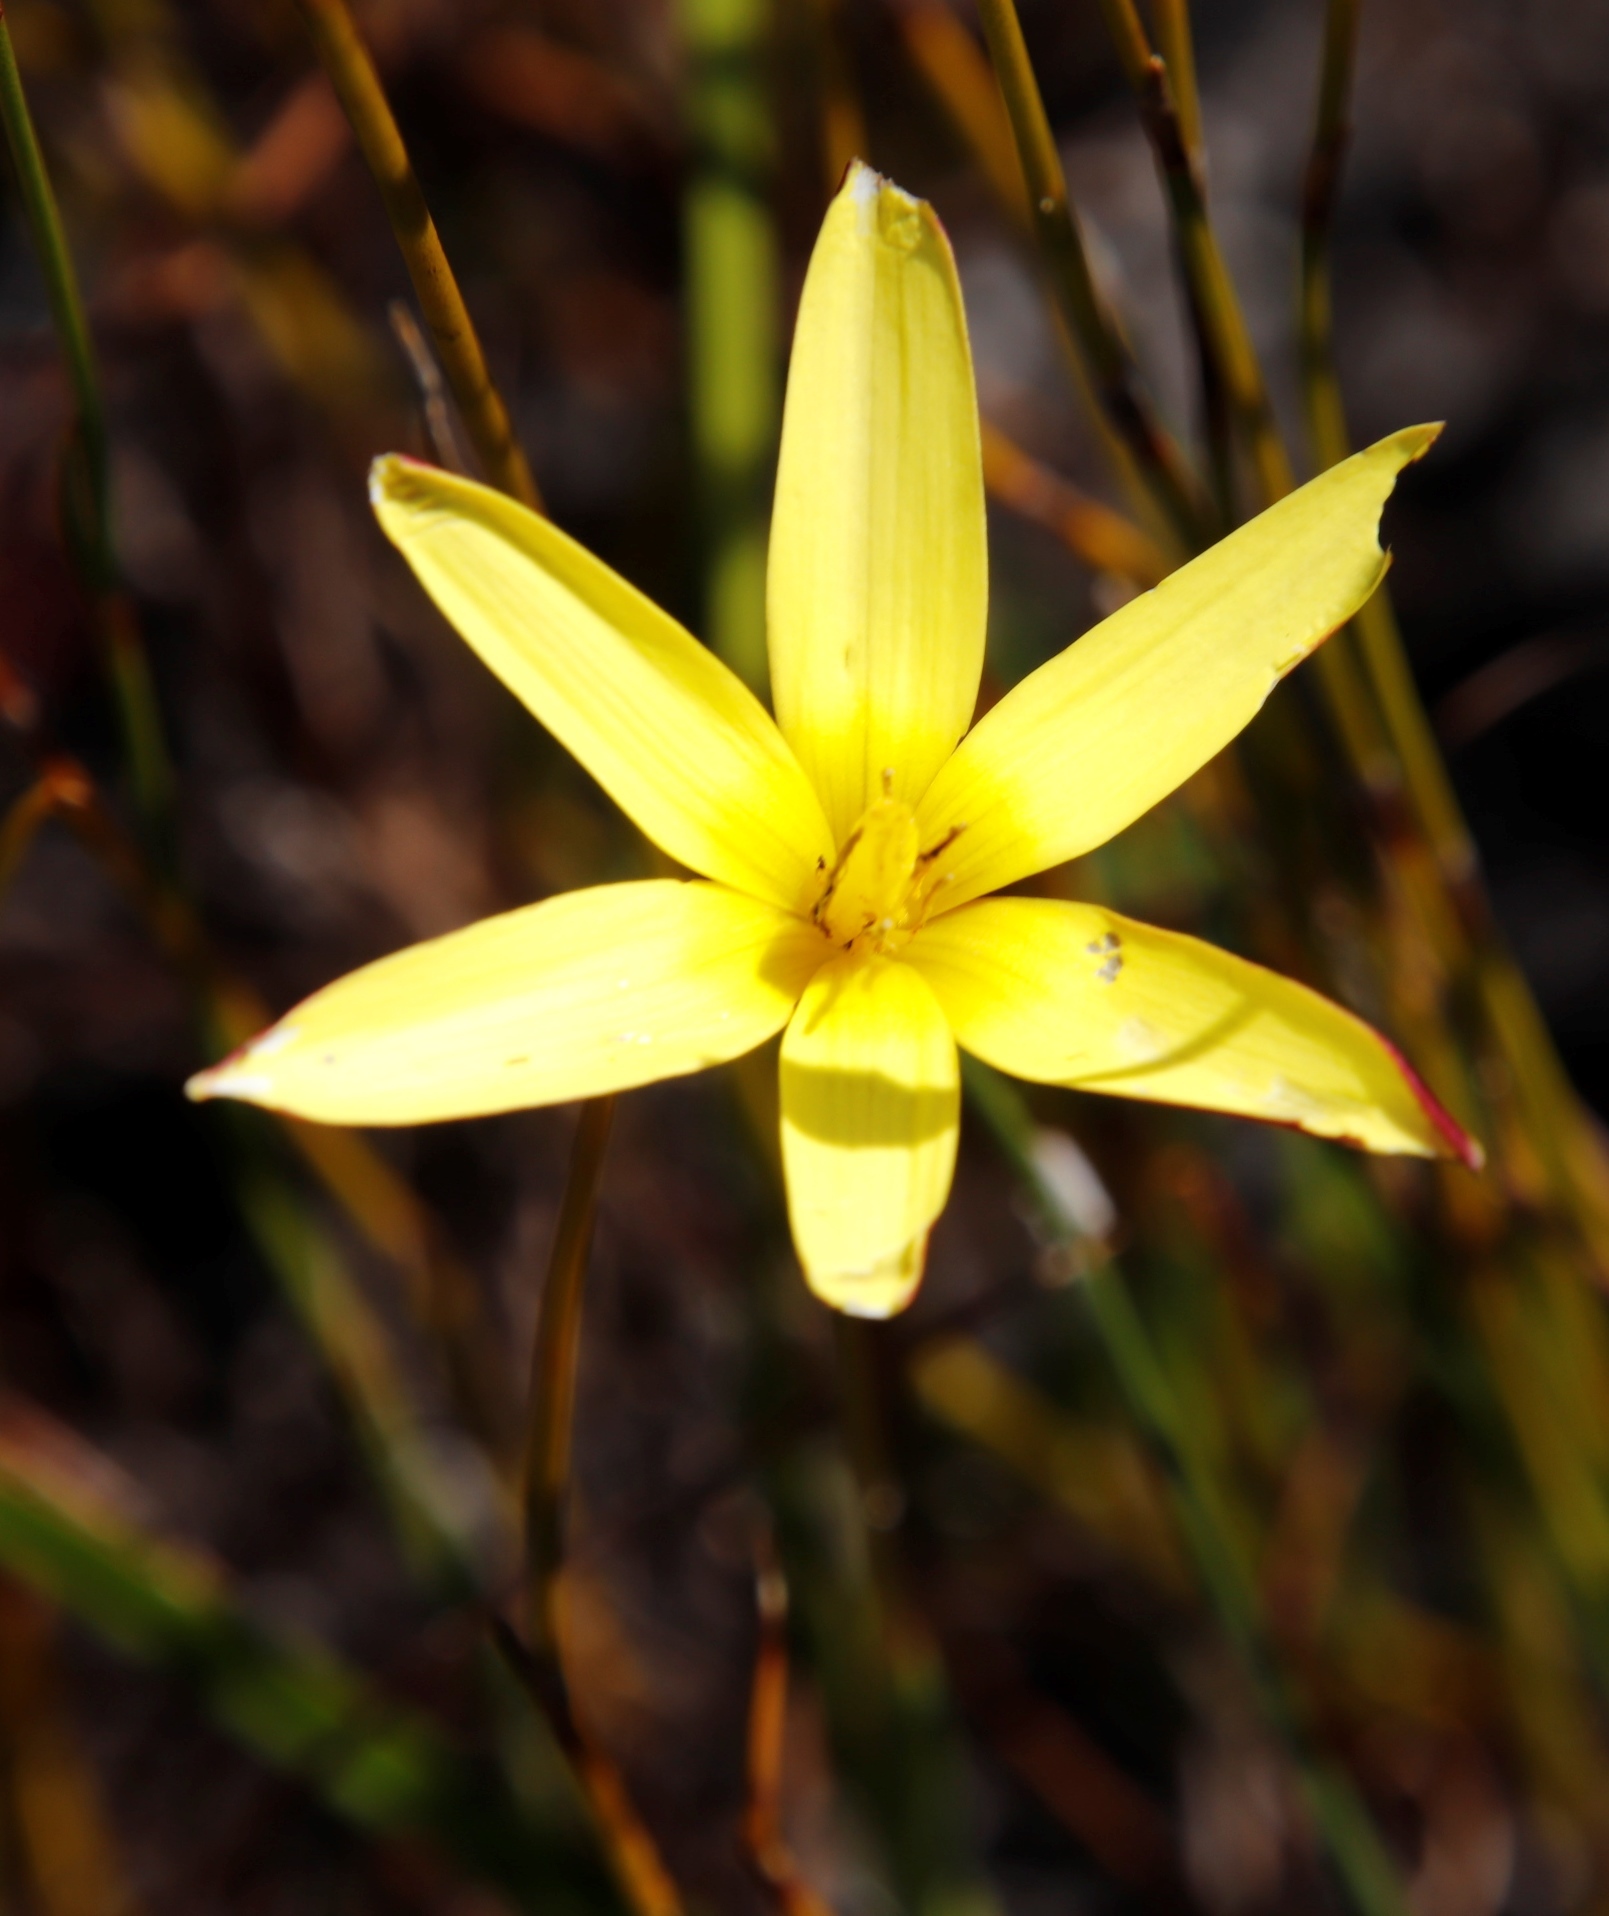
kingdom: Plantae
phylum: Tracheophyta
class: Liliopsida
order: Asparagales
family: Hypoxidaceae
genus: Pauridia
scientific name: Pauridia capensis
